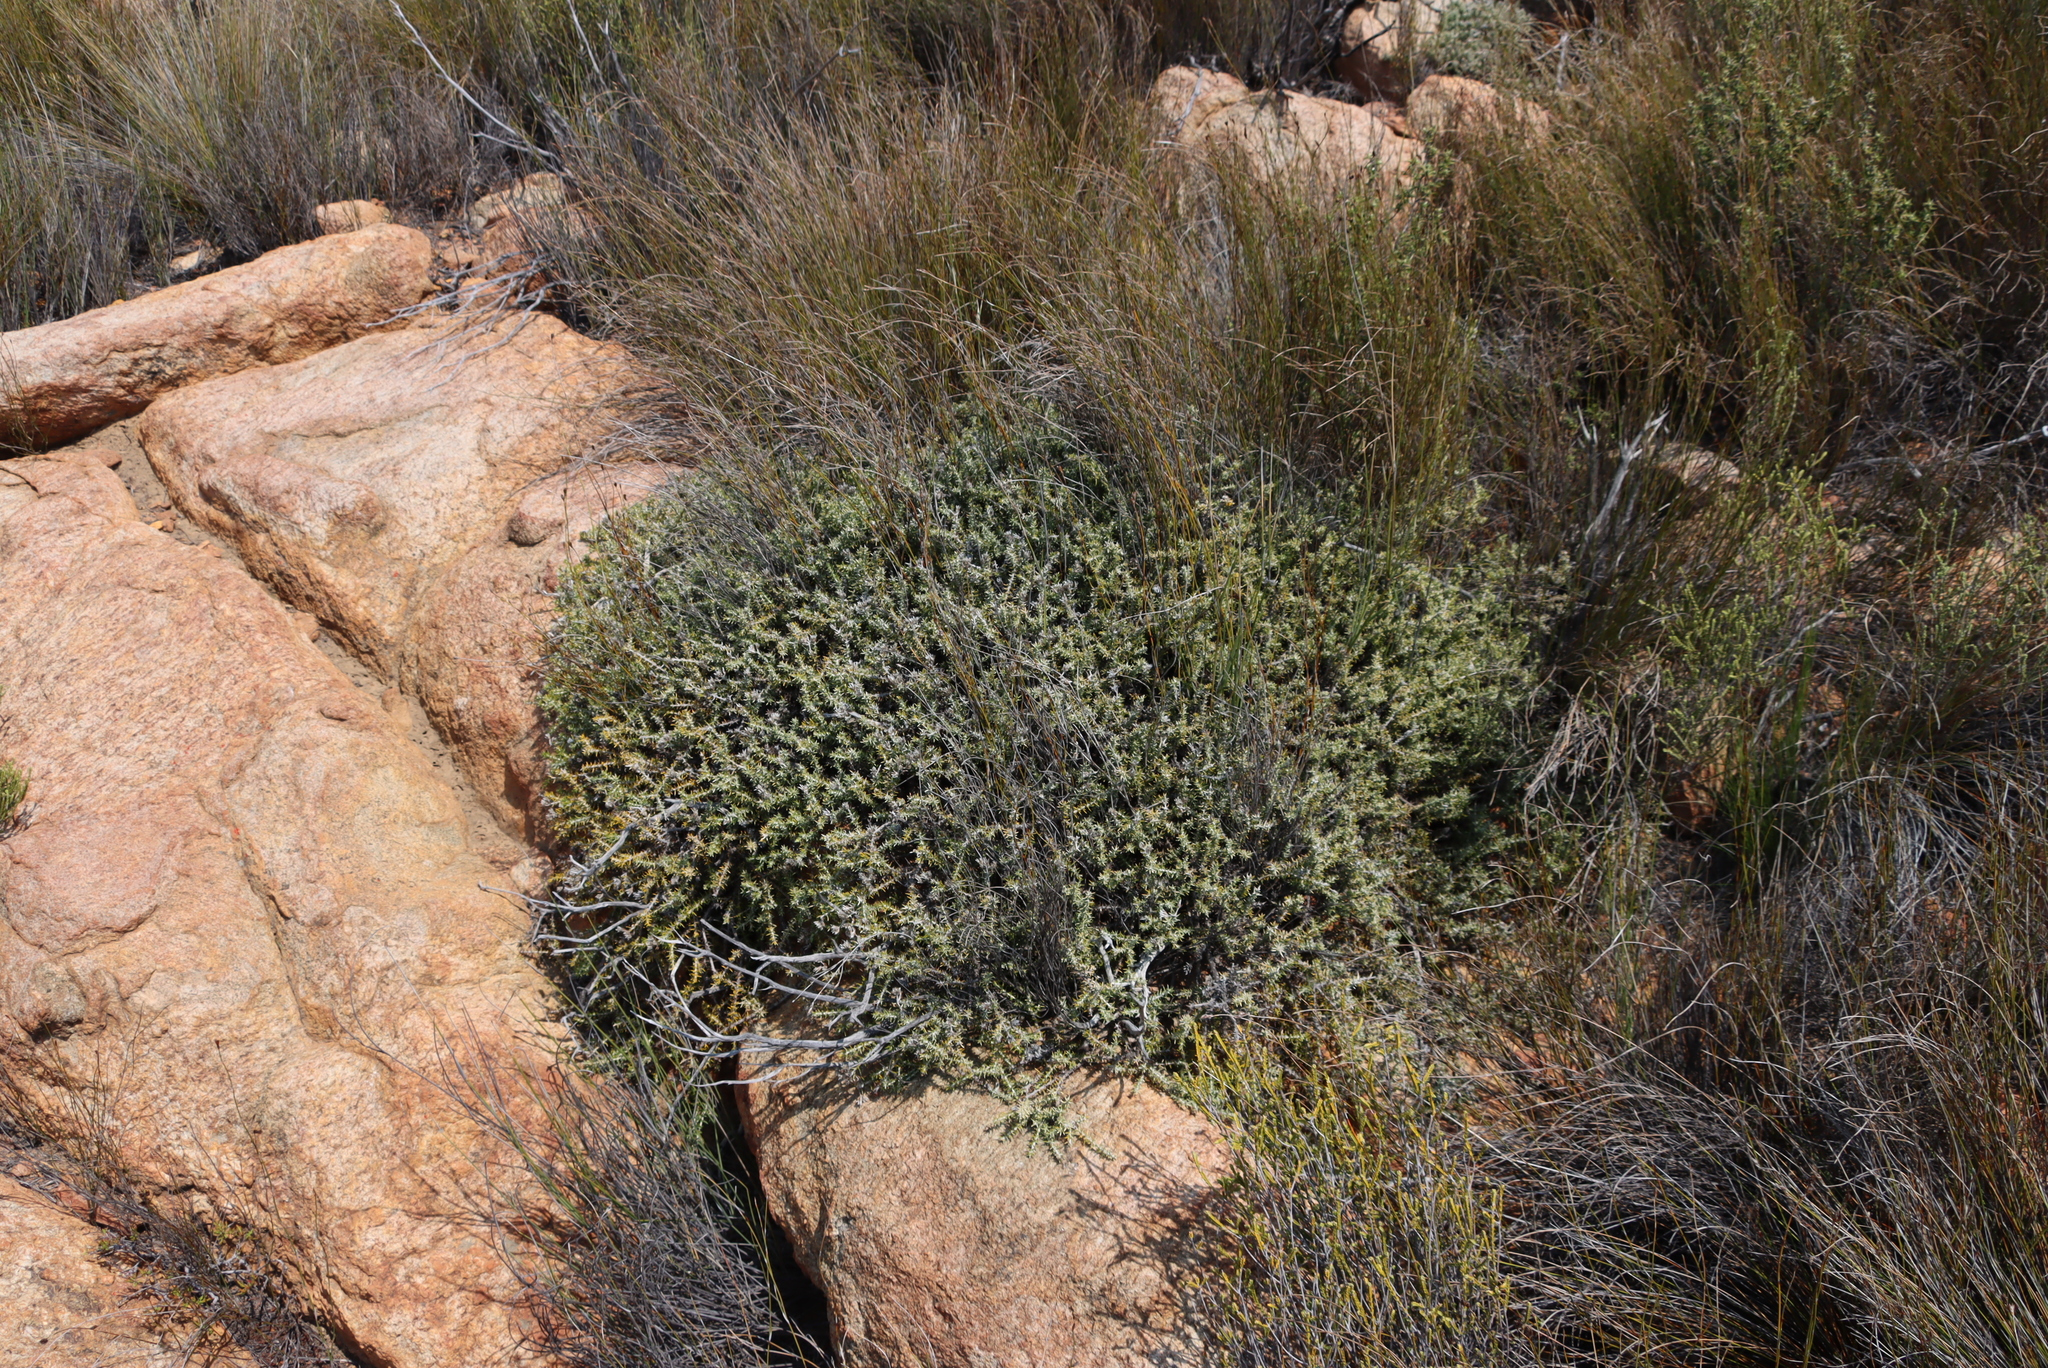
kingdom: Plantae
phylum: Tracheophyta
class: Magnoliopsida
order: Asterales
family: Asteraceae
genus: Metalasia
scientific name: Metalasia namaquana
